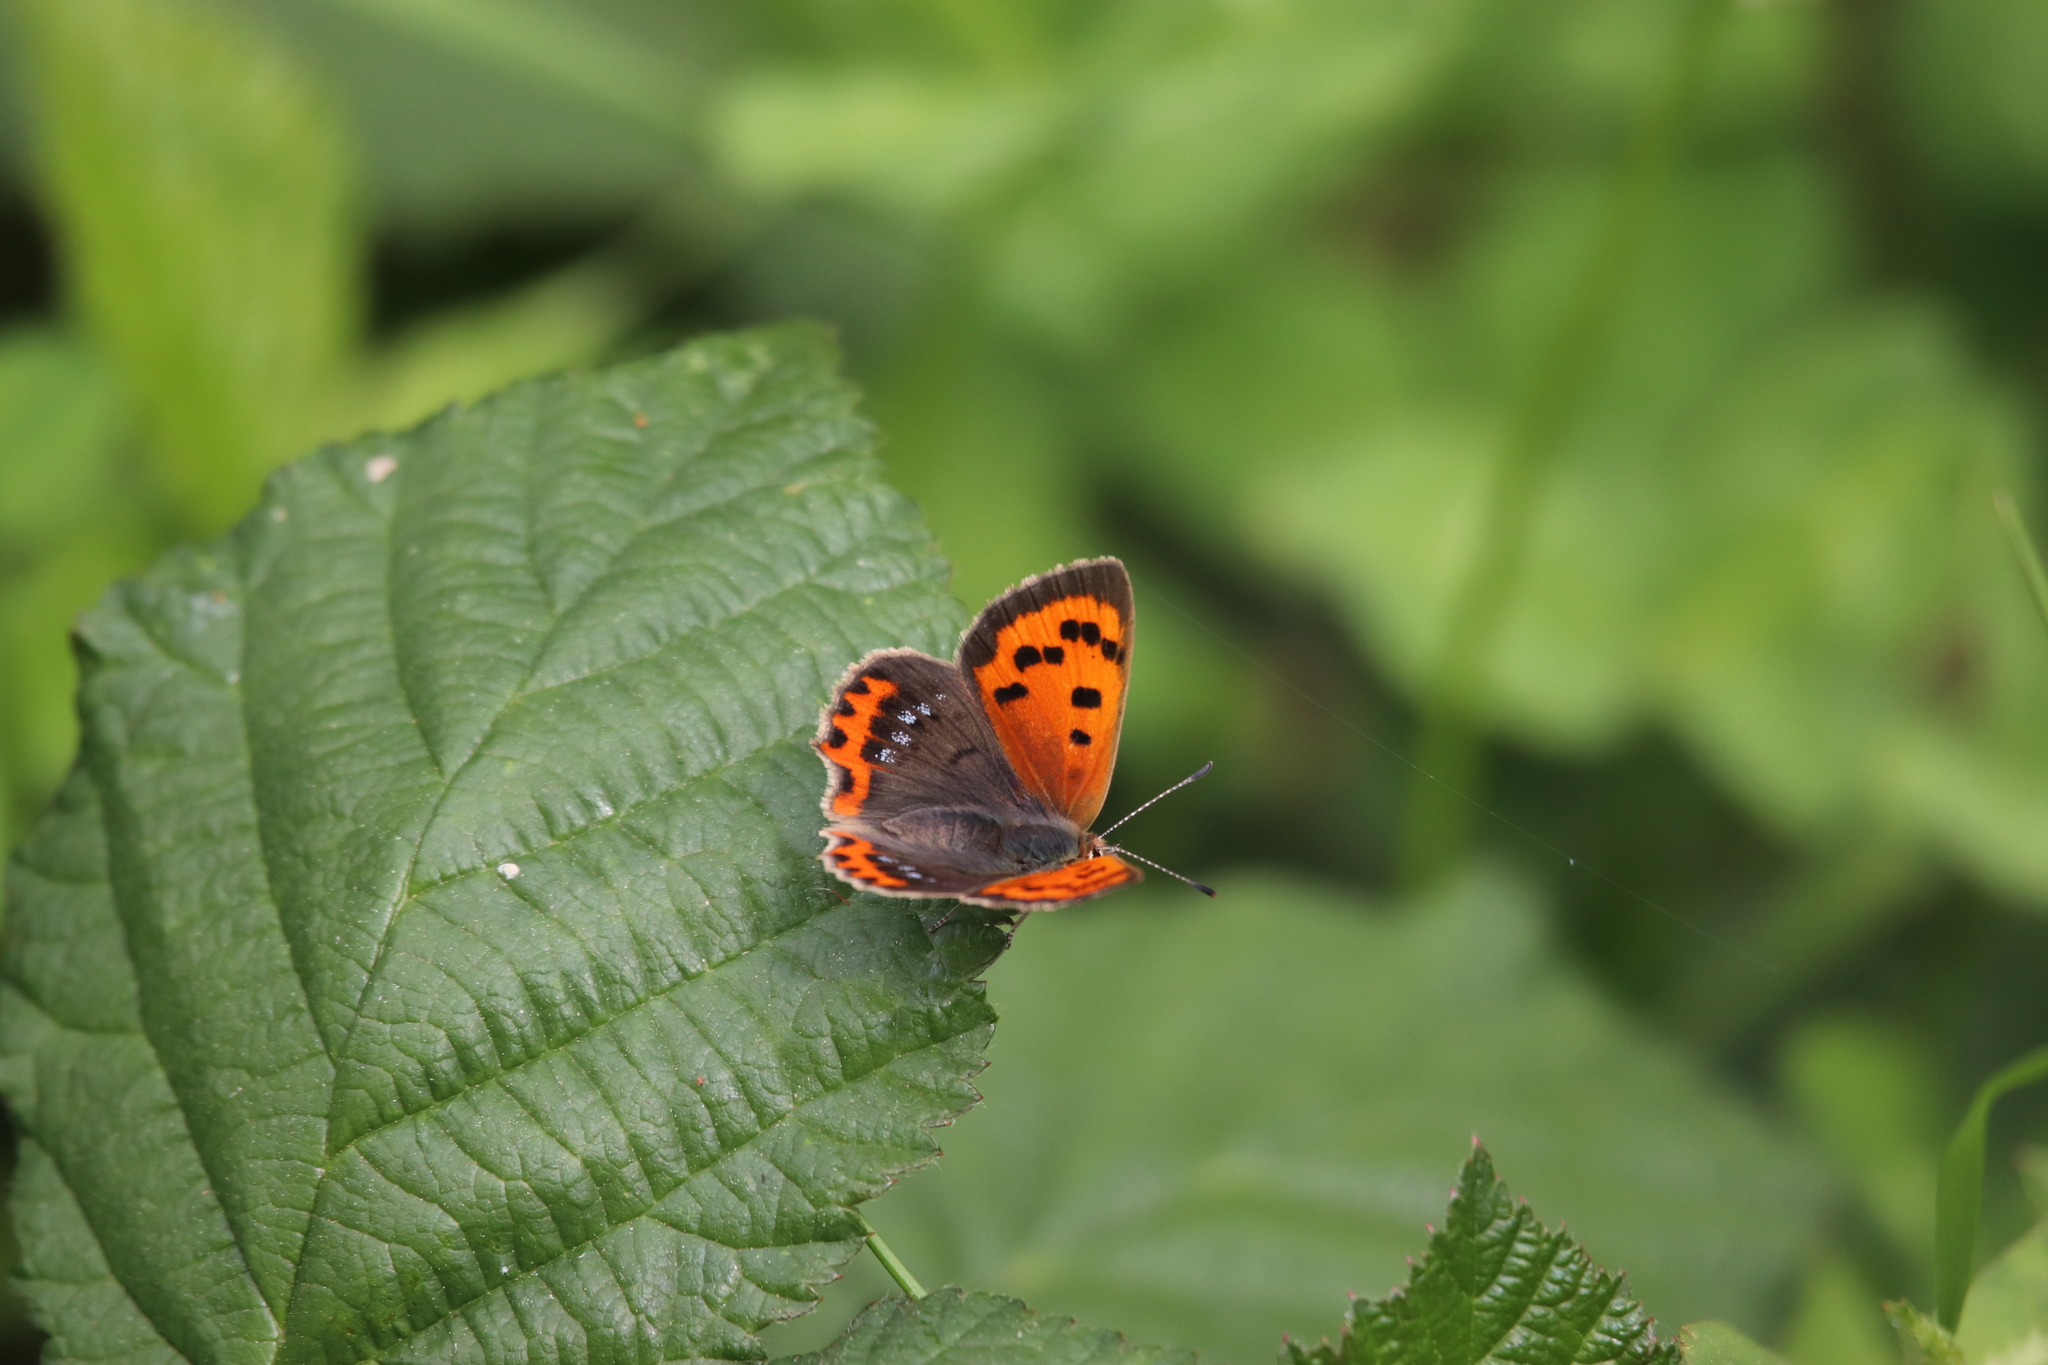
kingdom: Animalia
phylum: Arthropoda
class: Insecta
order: Lepidoptera
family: Lycaenidae
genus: Lycaena
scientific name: Lycaena phlaeas
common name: Small copper
